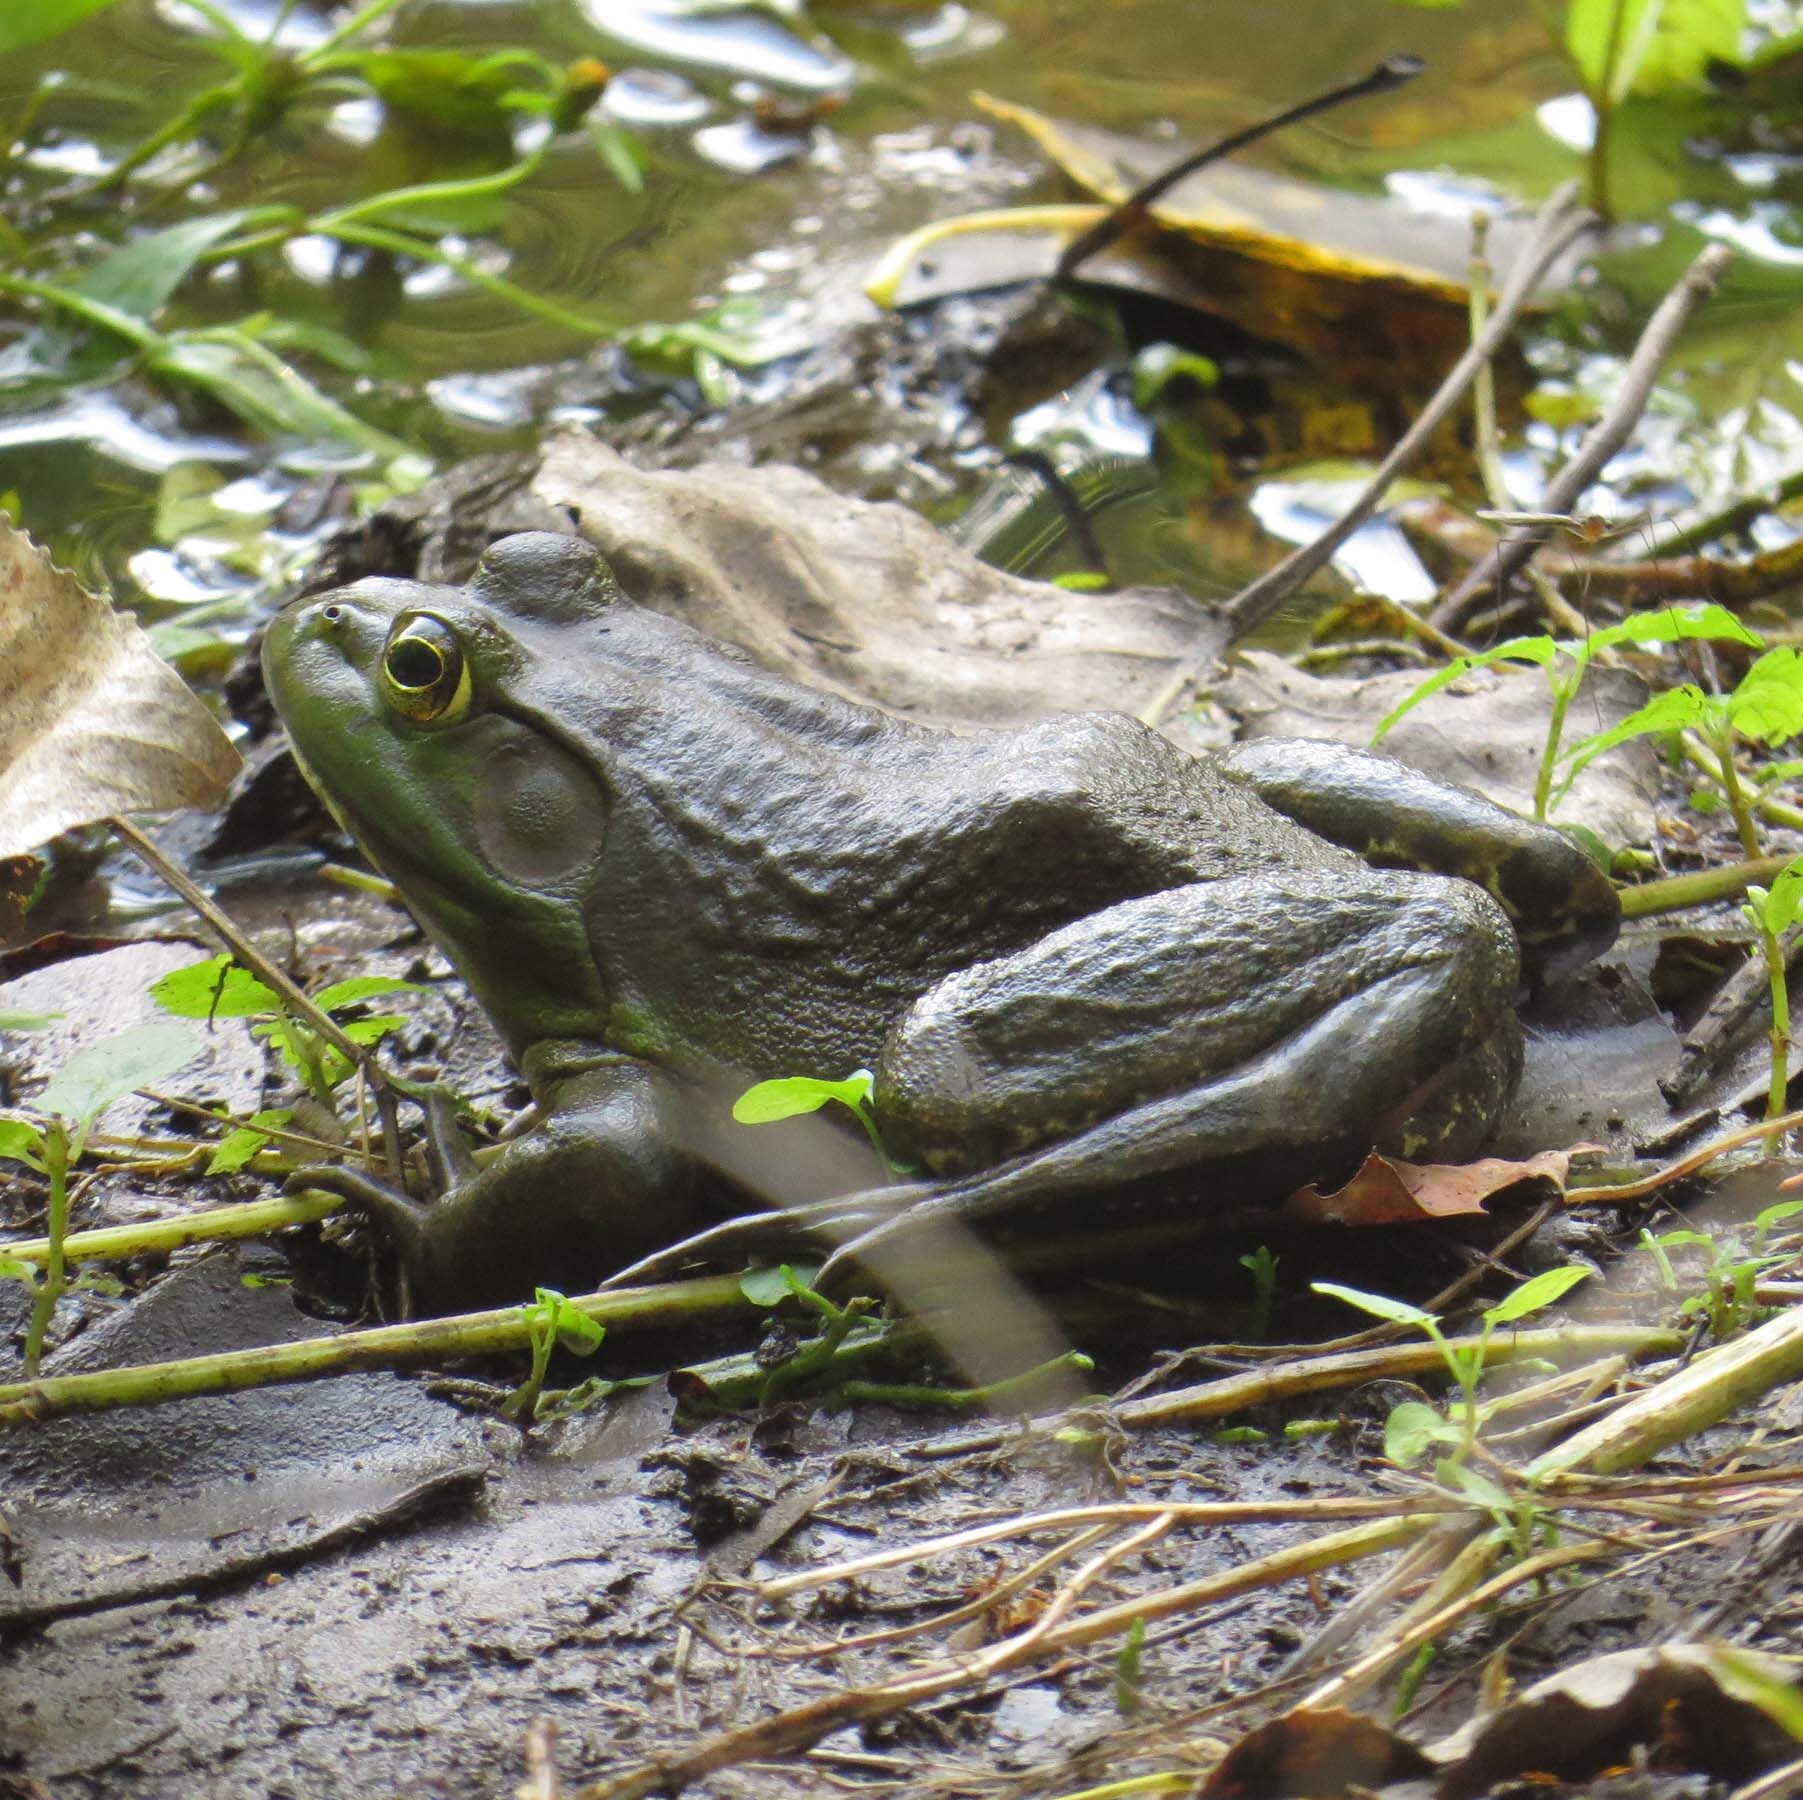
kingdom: Animalia
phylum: Chordata
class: Amphibia
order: Anura
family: Ranidae
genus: Lithobates
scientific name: Lithobates catesbeianus
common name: American bullfrog
